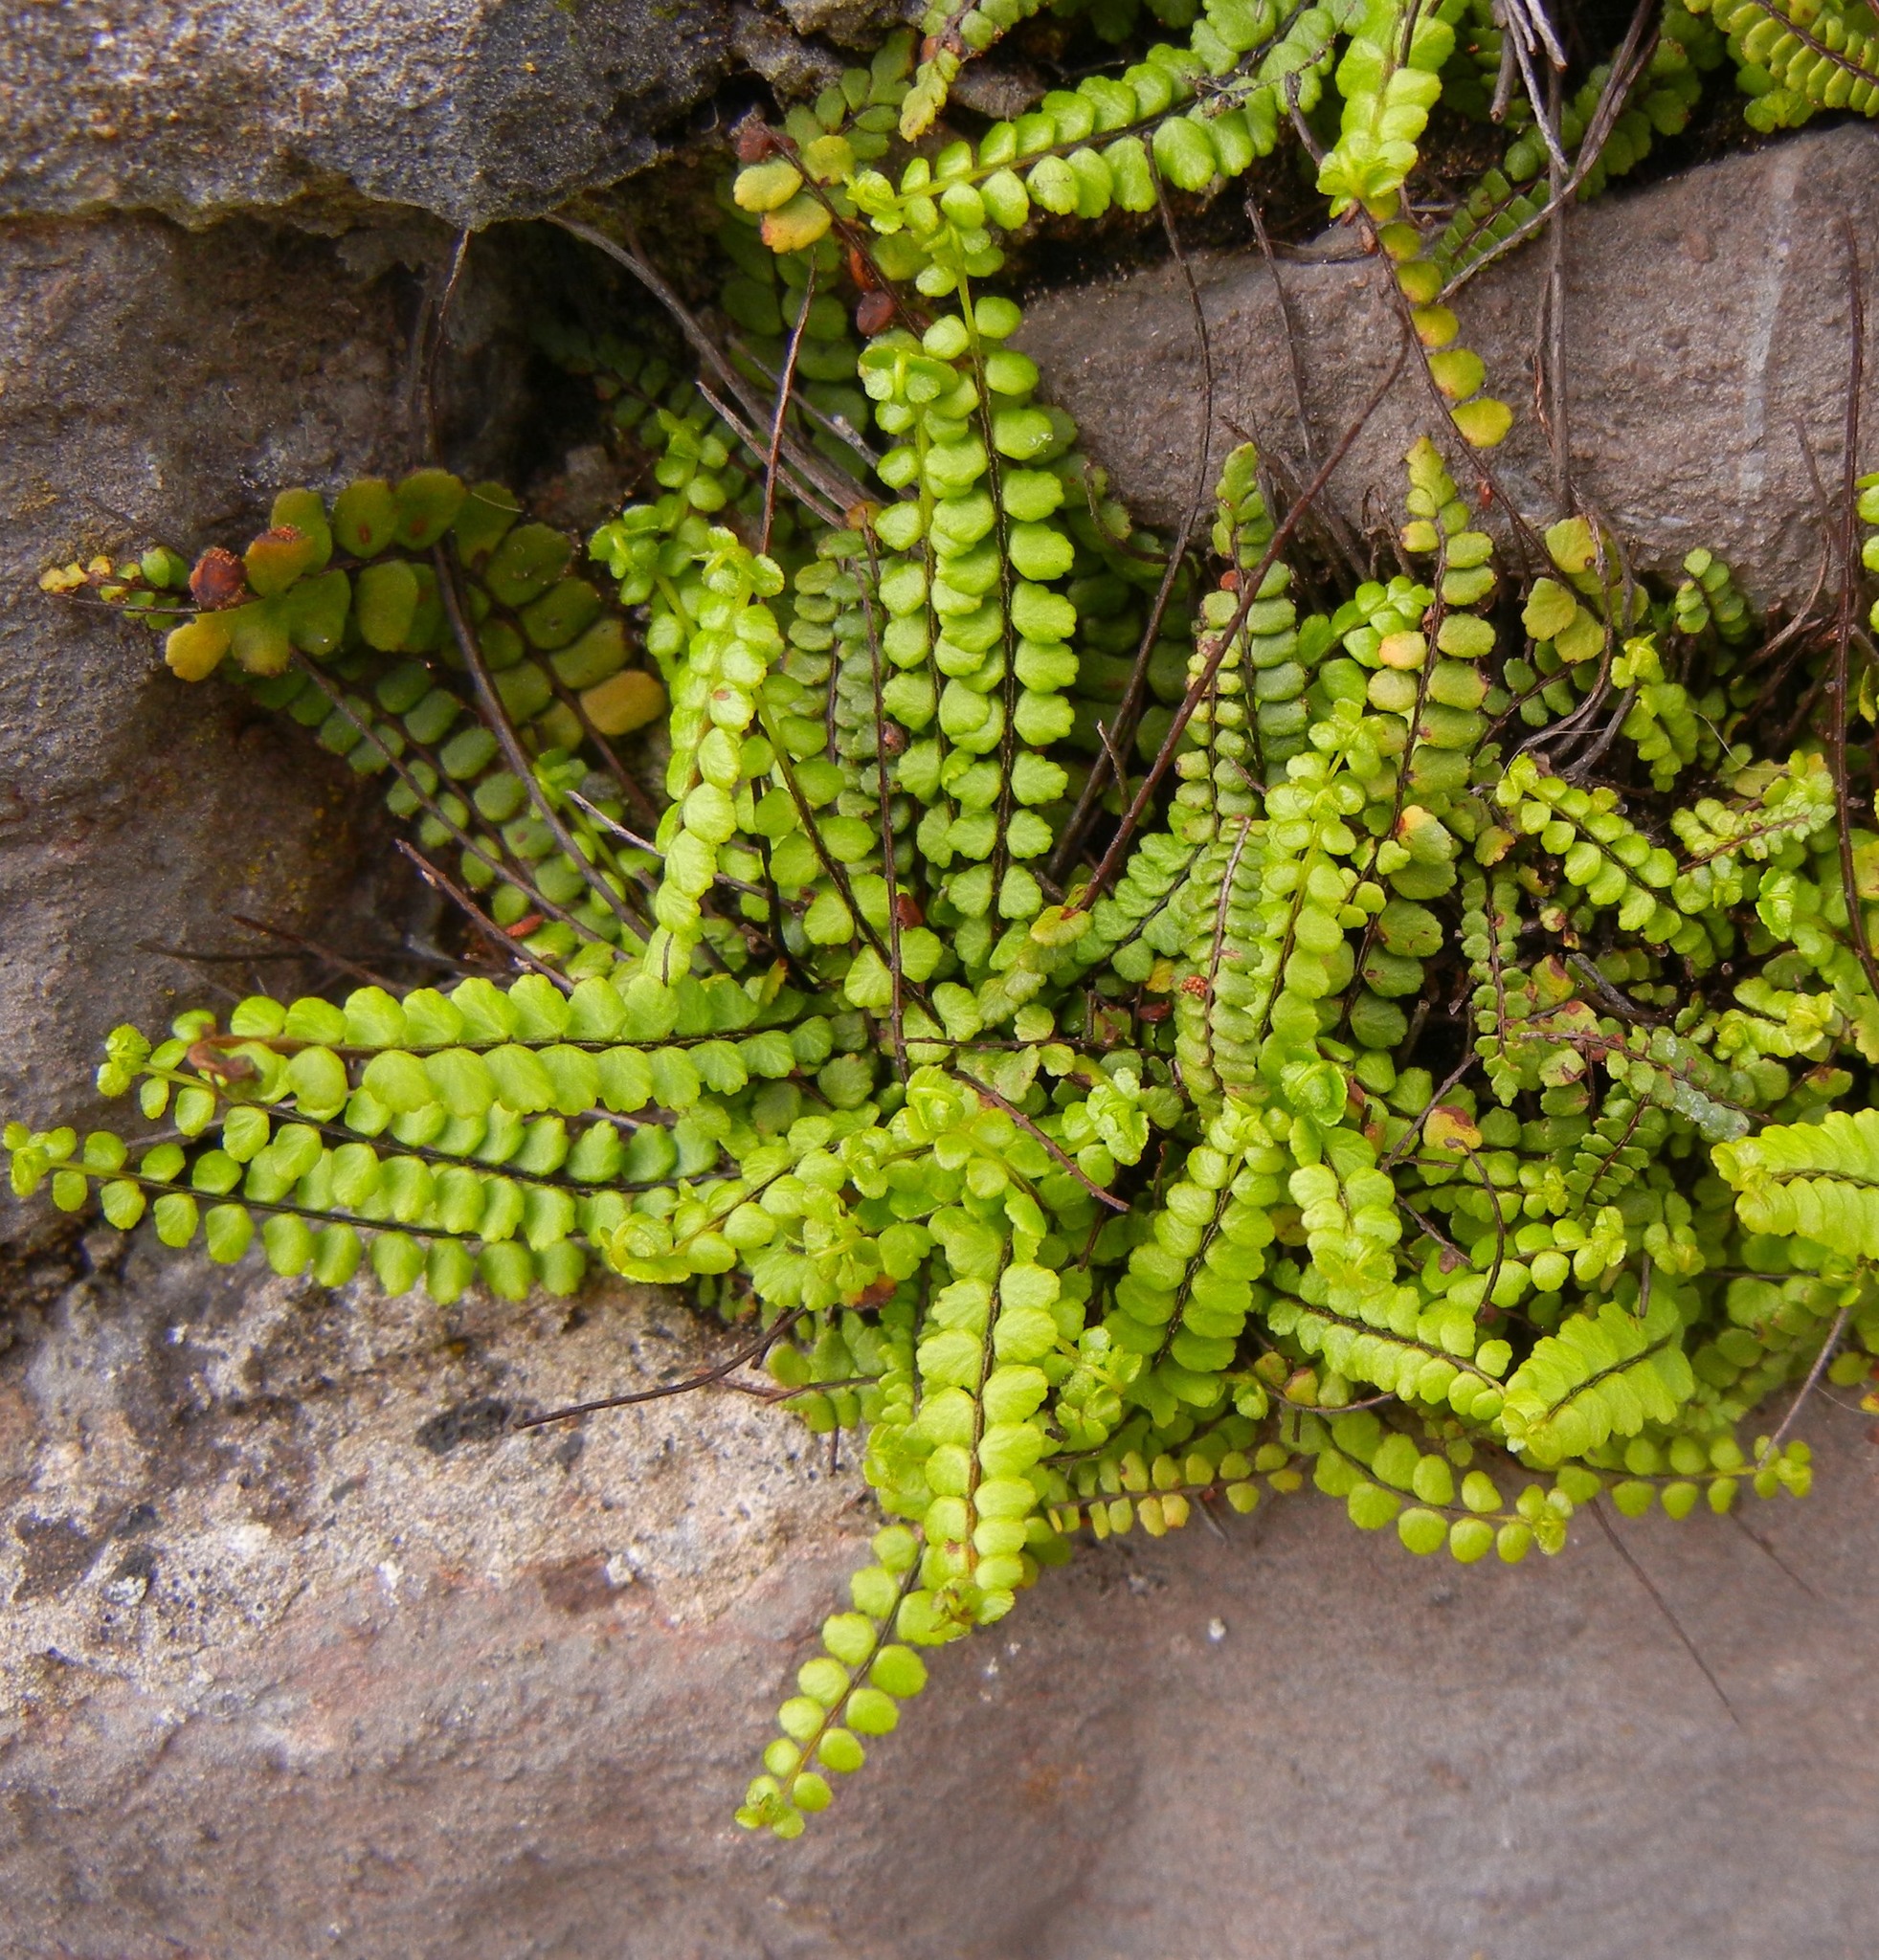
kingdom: Plantae
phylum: Tracheophyta
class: Polypodiopsida
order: Polypodiales
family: Aspleniaceae
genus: Asplenium
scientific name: Asplenium trichomanes
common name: Maidenhair spleenwort
